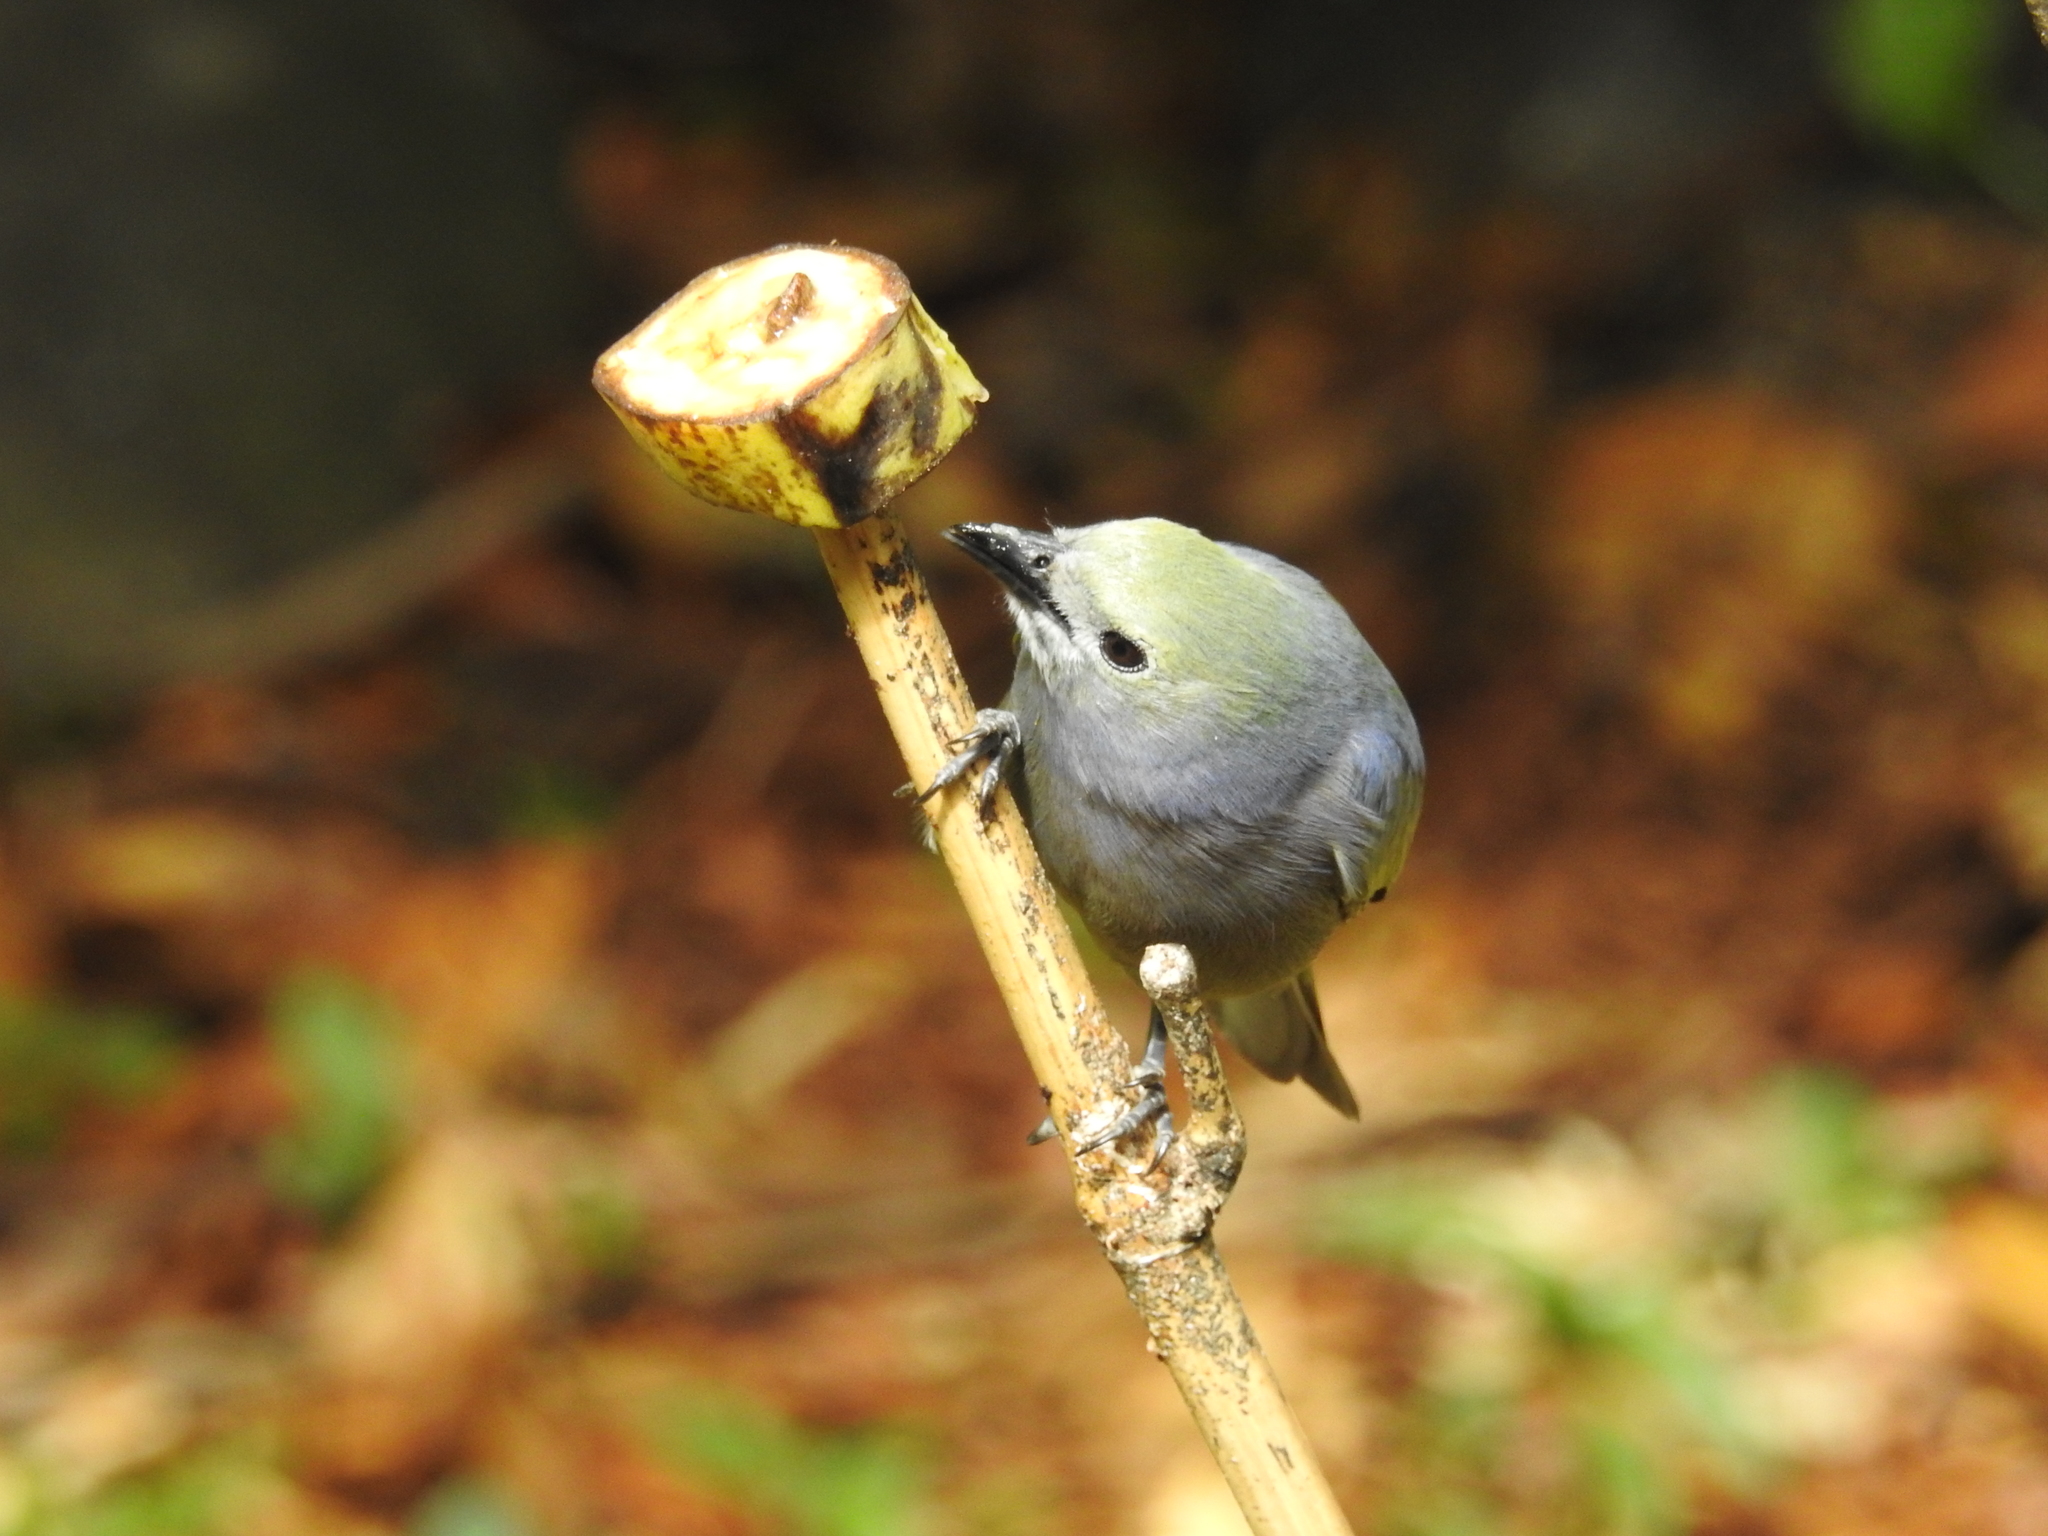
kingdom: Animalia
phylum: Chordata
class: Aves
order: Passeriformes
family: Thraupidae
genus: Thraupis
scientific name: Thraupis palmarum
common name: Palm tanager
